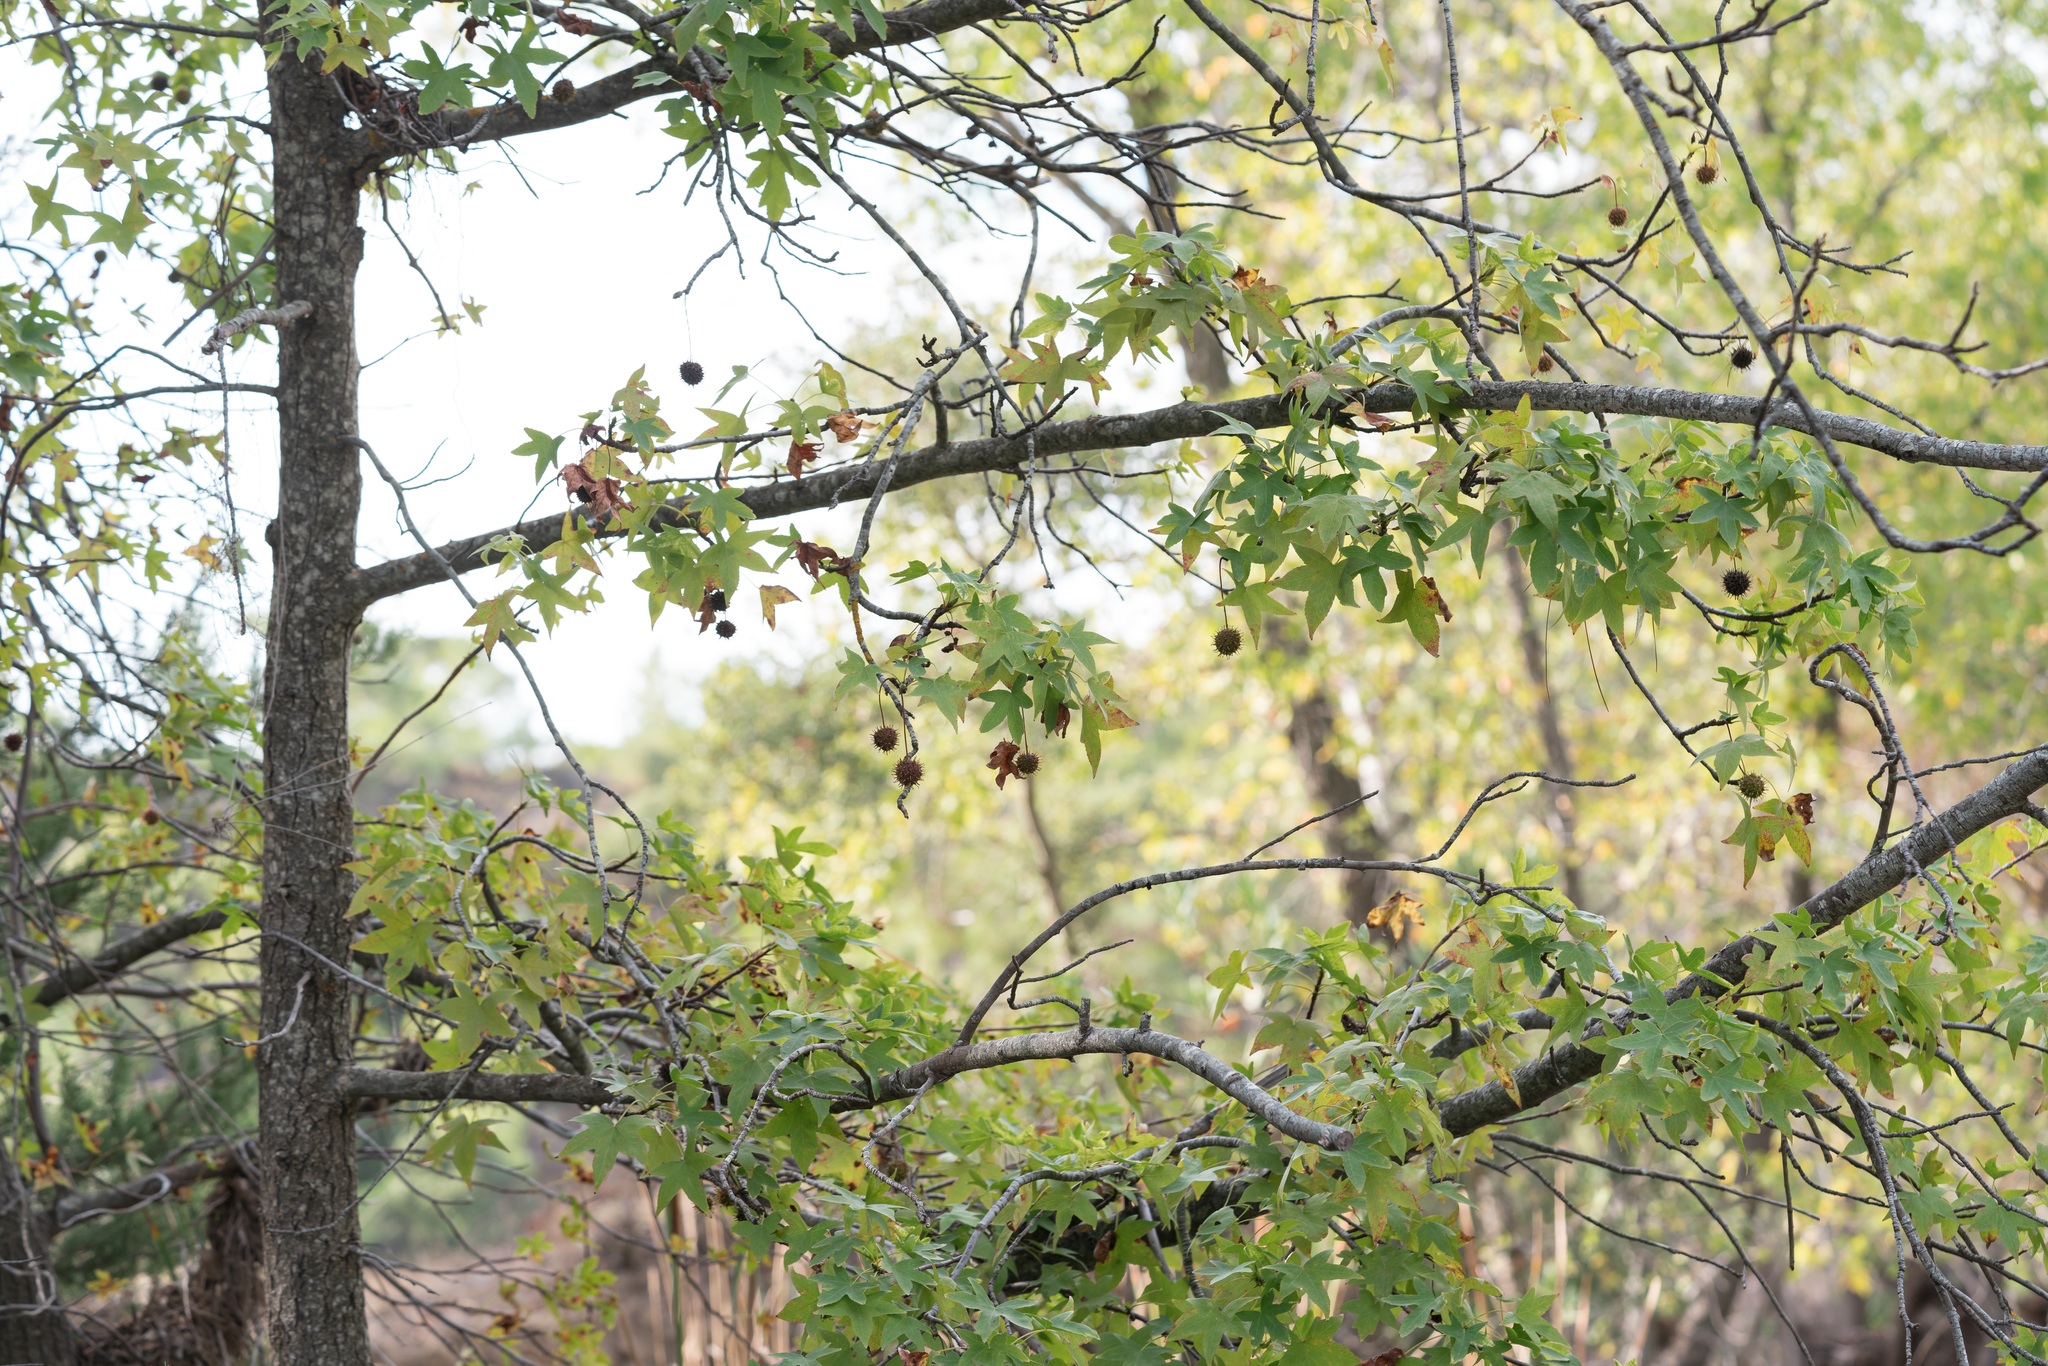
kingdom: Plantae
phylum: Tracheophyta
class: Magnoliopsida
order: Saxifragales
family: Altingiaceae
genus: Liquidambar
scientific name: Liquidambar orientalis
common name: Oriental sweetgum
